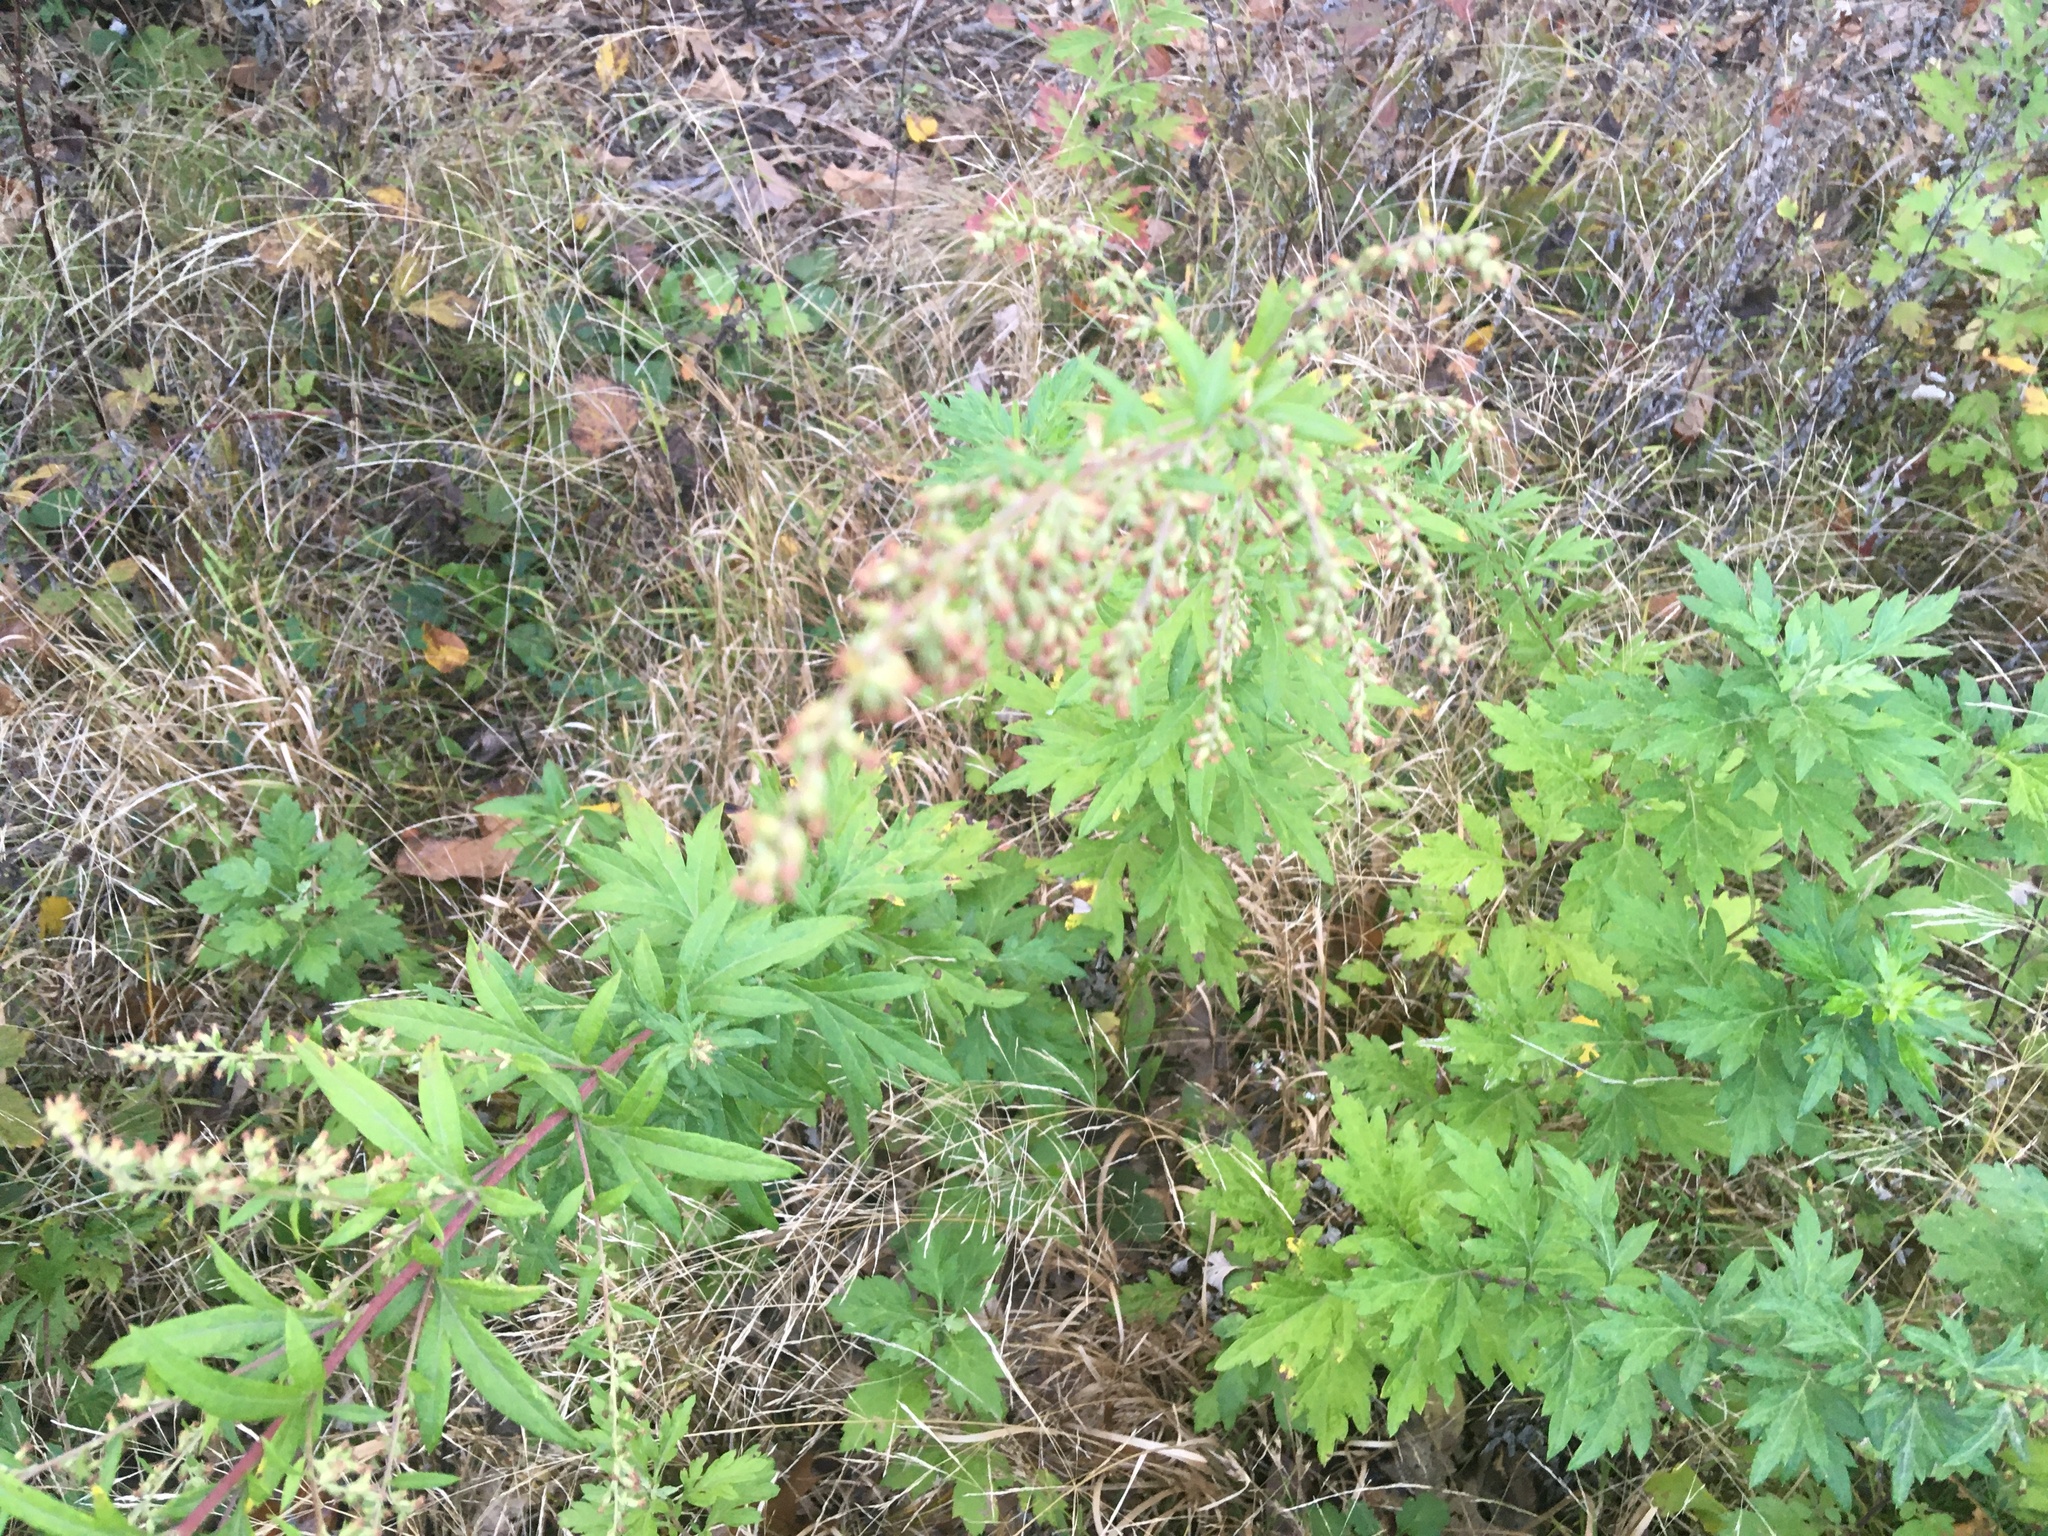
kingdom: Plantae
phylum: Tracheophyta
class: Magnoliopsida
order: Asterales
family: Asteraceae
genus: Artemisia
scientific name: Artemisia vulgaris
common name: Mugwort
